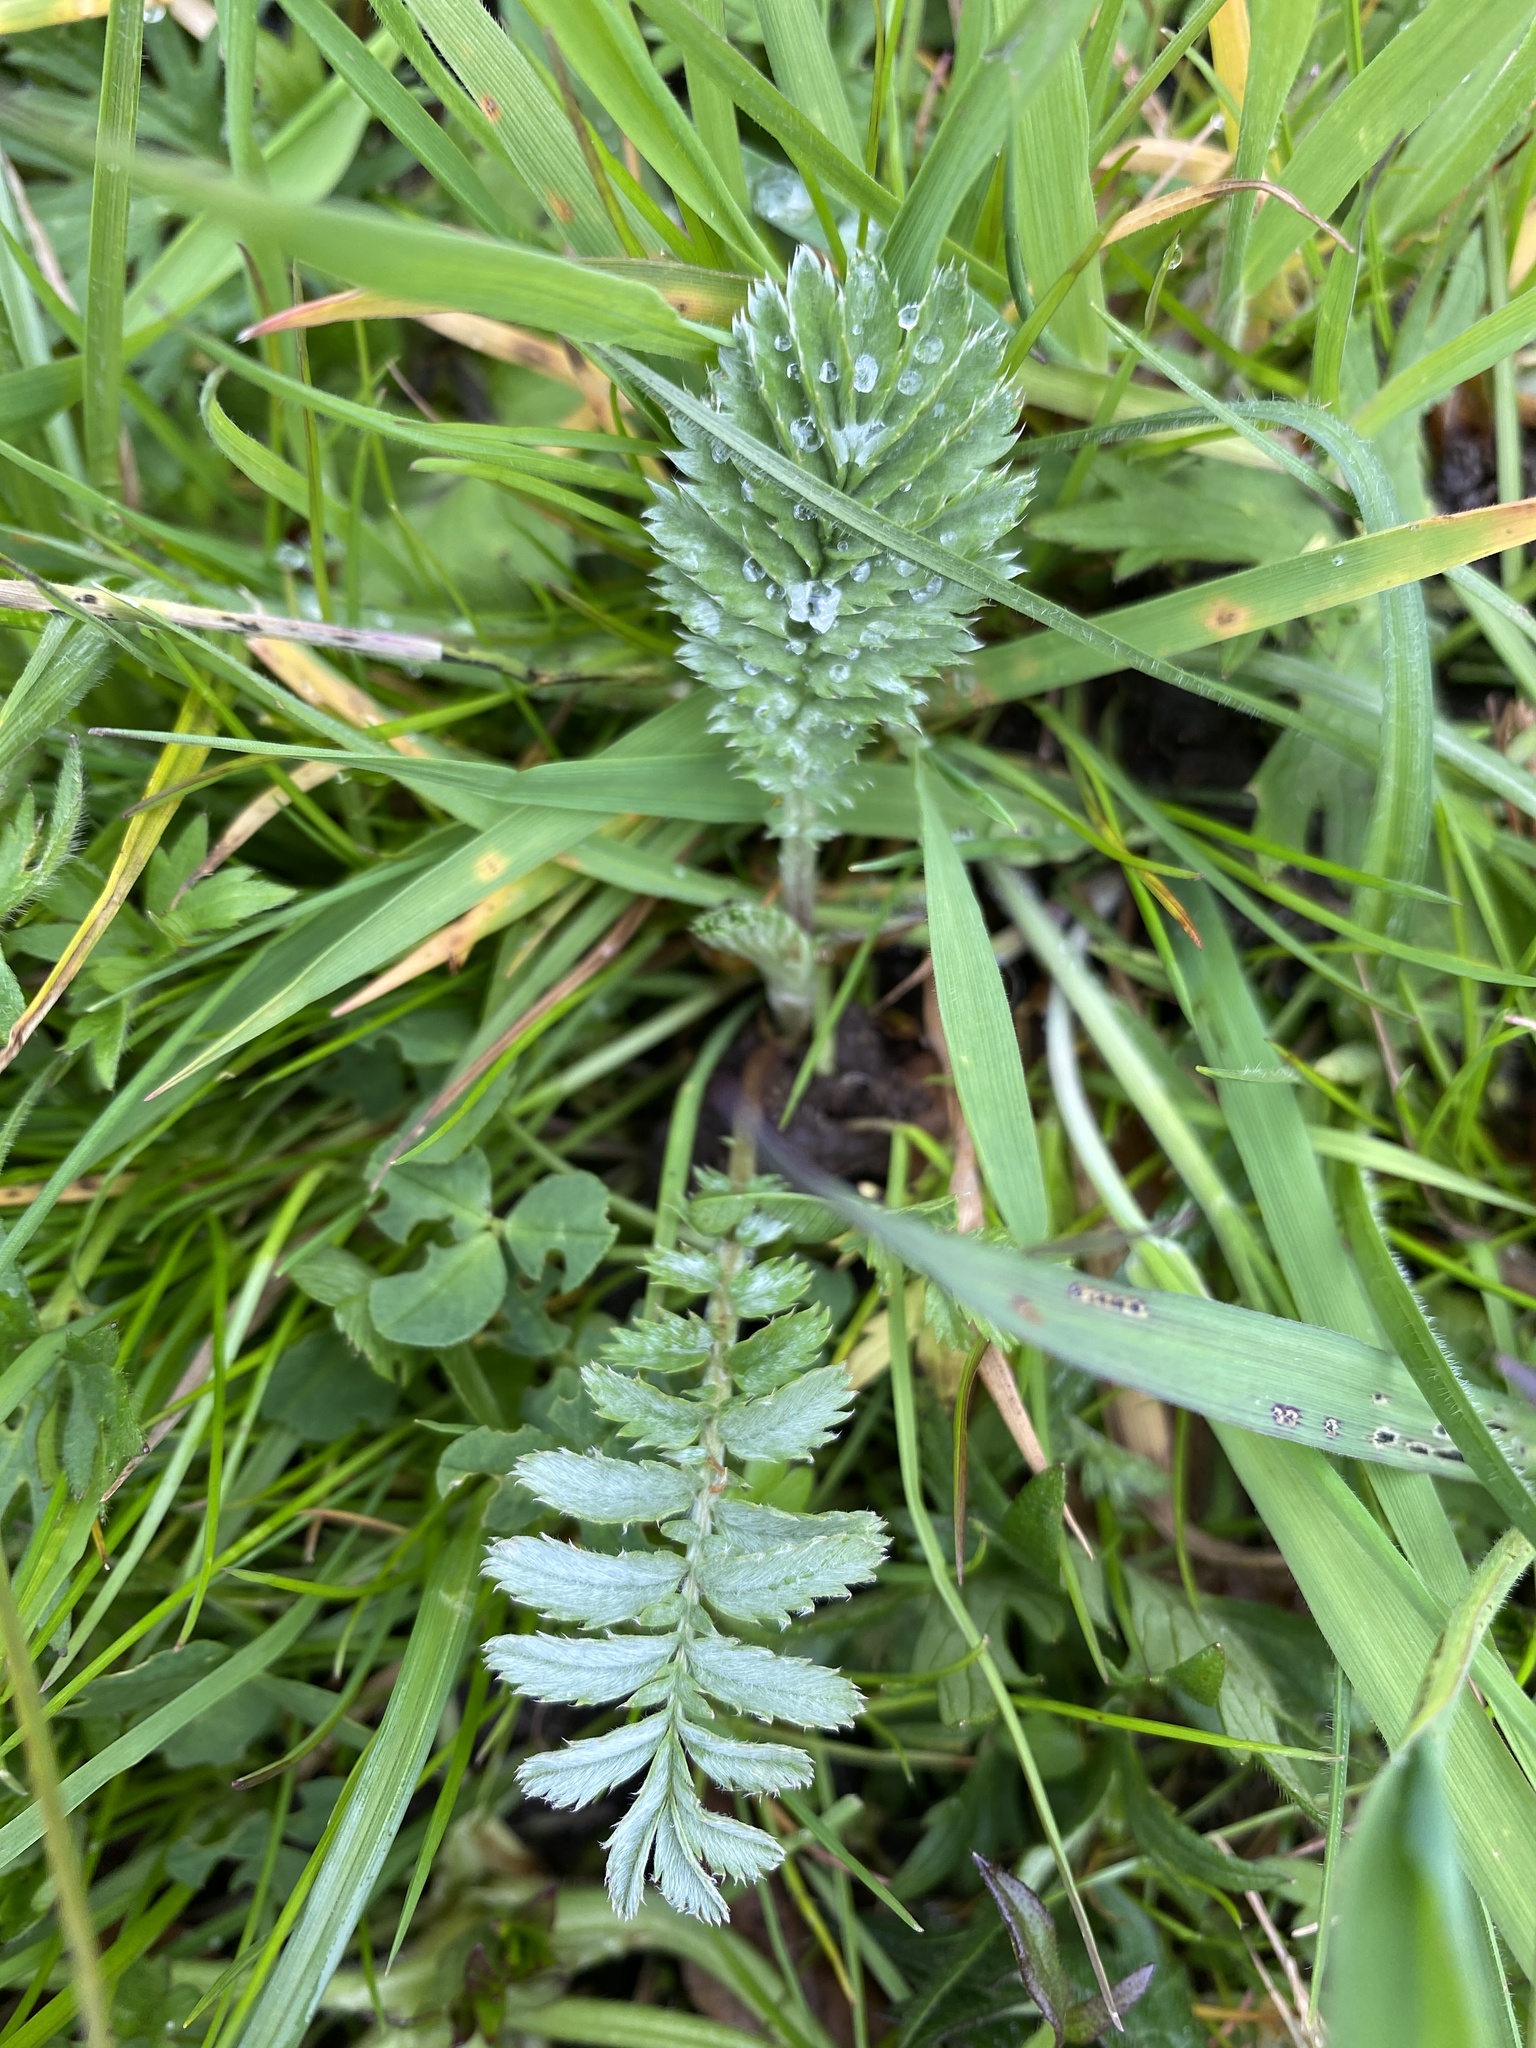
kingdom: Plantae
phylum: Tracheophyta
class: Magnoliopsida
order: Rosales
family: Rosaceae
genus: Argentina
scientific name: Argentina anserina
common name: Common silverweed
